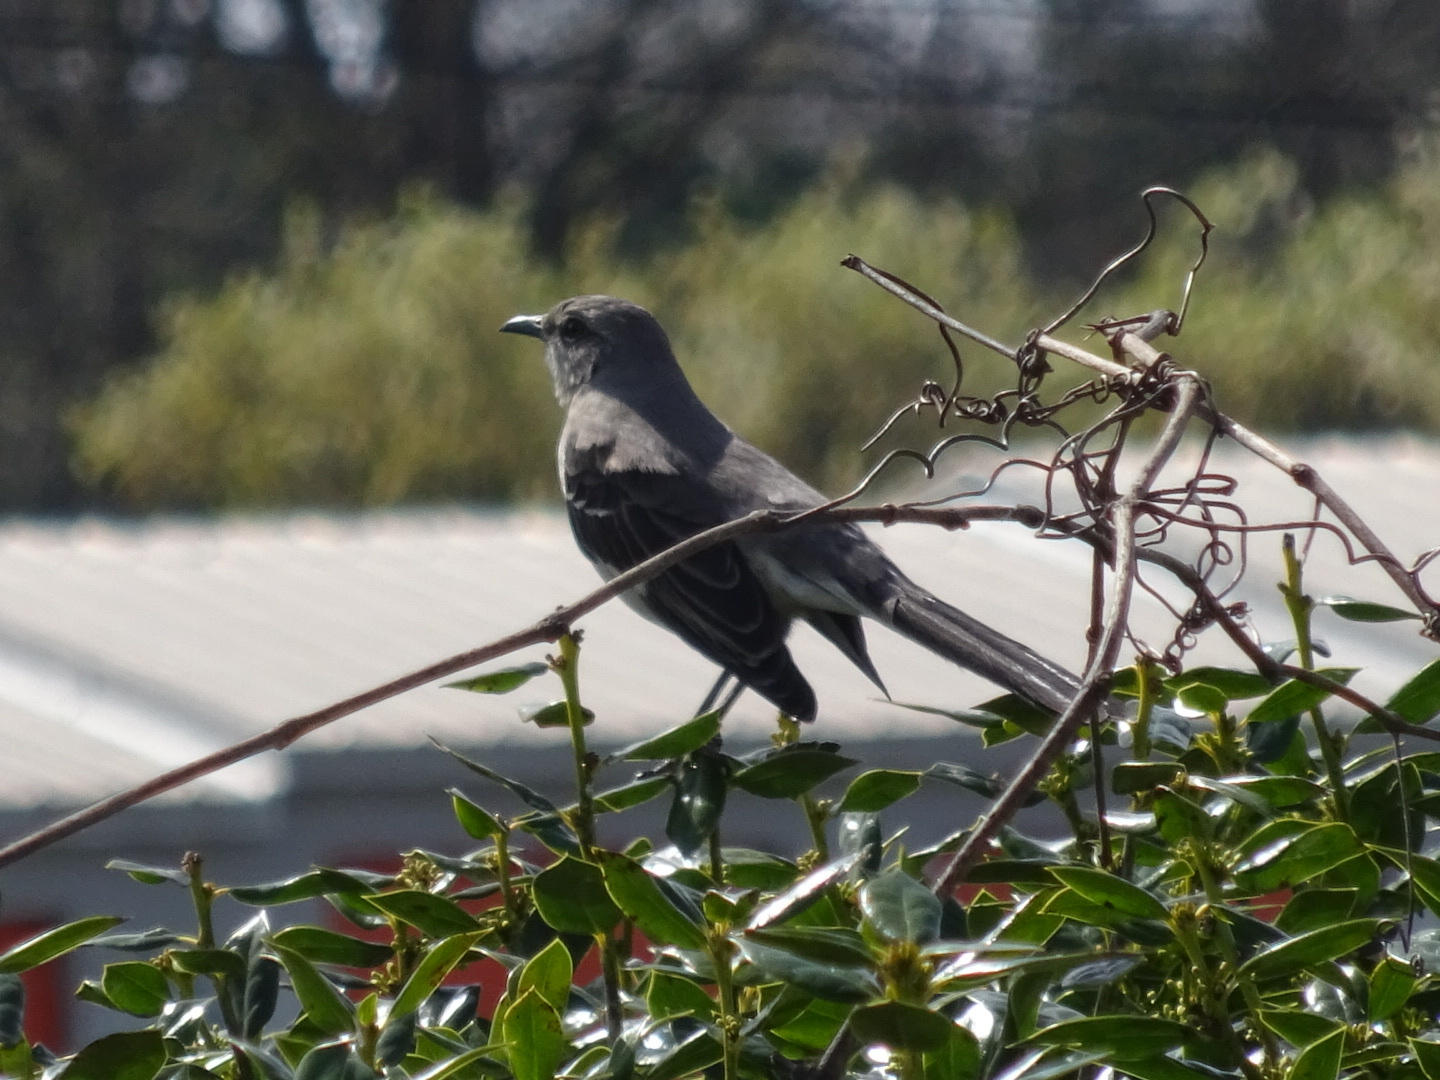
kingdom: Animalia
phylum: Chordata
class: Aves
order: Passeriformes
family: Mimidae
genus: Mimus
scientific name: Mimus polyglottos
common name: Northern mockingbird
